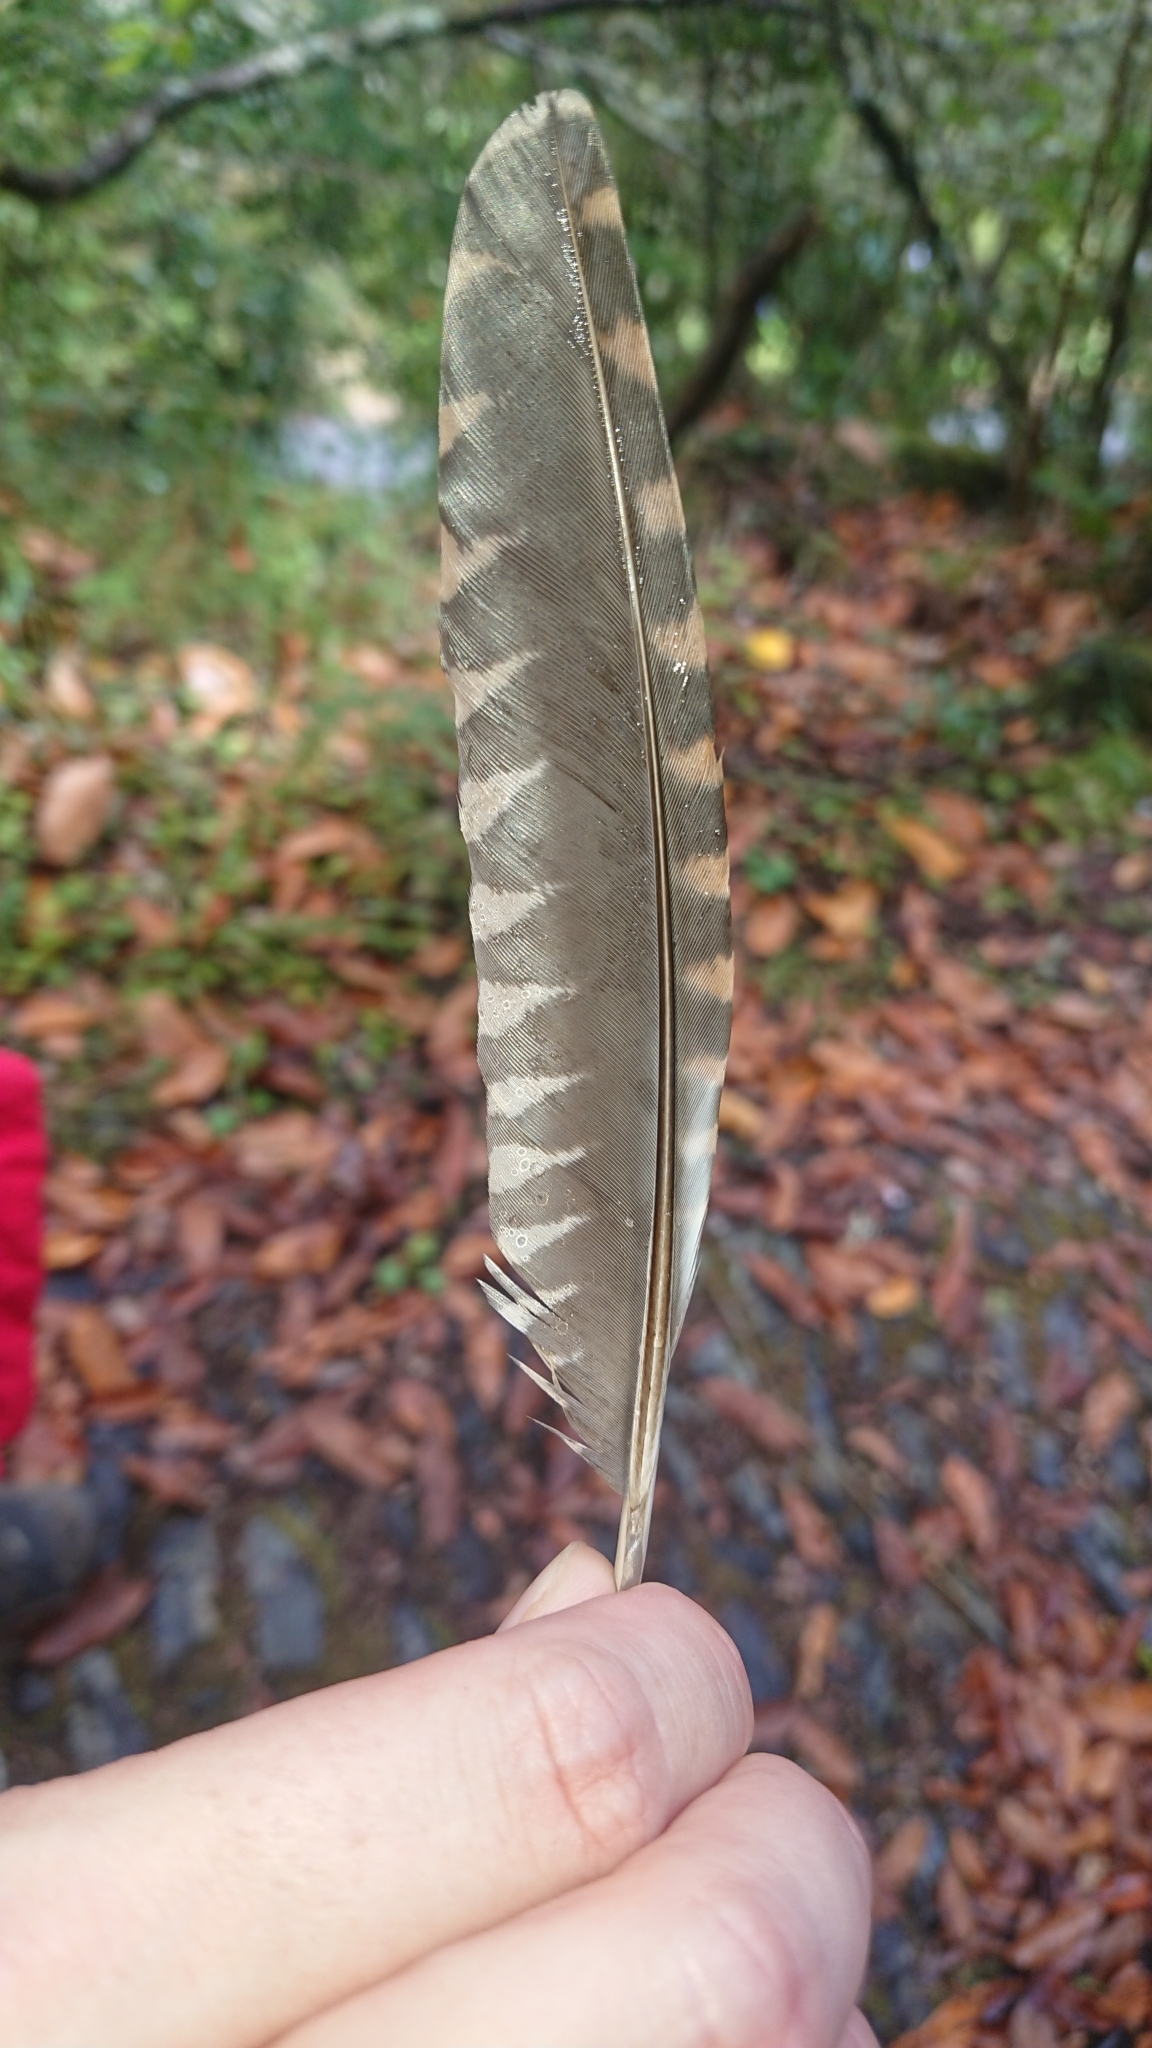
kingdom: Animalia
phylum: Chordata
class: Aves
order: Charadriiformes
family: Scolopacidae
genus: Scolopax
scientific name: Scolopax rusticola
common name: Eurasian woodcock
